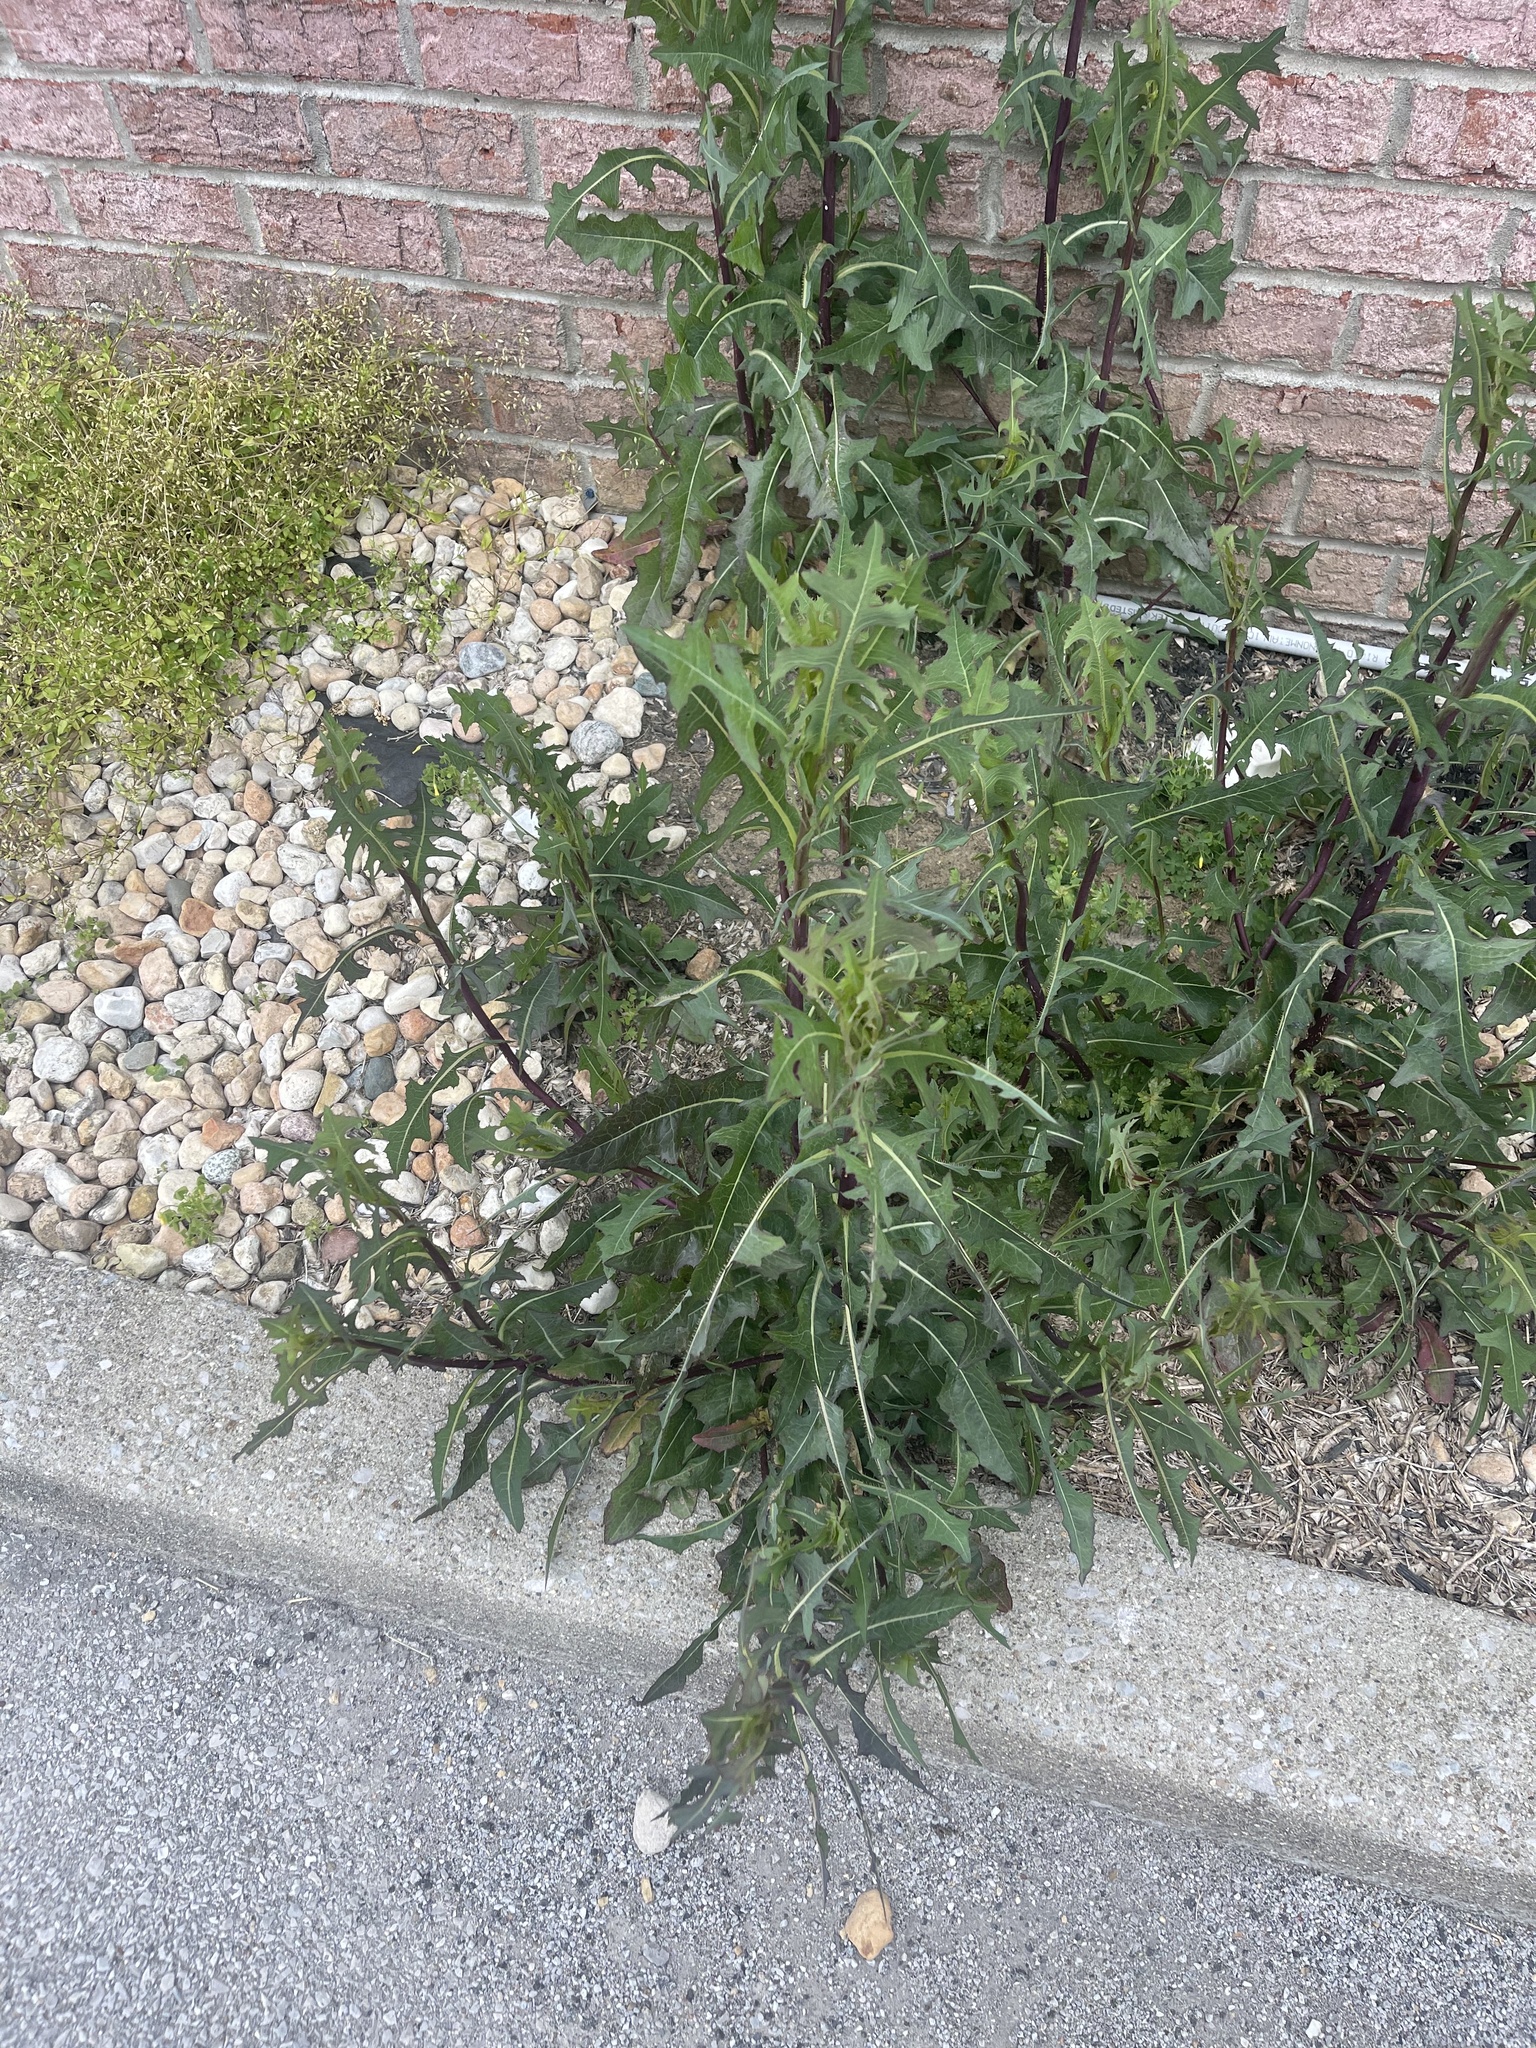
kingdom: Plantae
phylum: Tracheophyta
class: Magnoliopsida
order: Asterales
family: Asteraceae
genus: Lactuca
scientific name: Lactuca serriola
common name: Prickly lettuce
